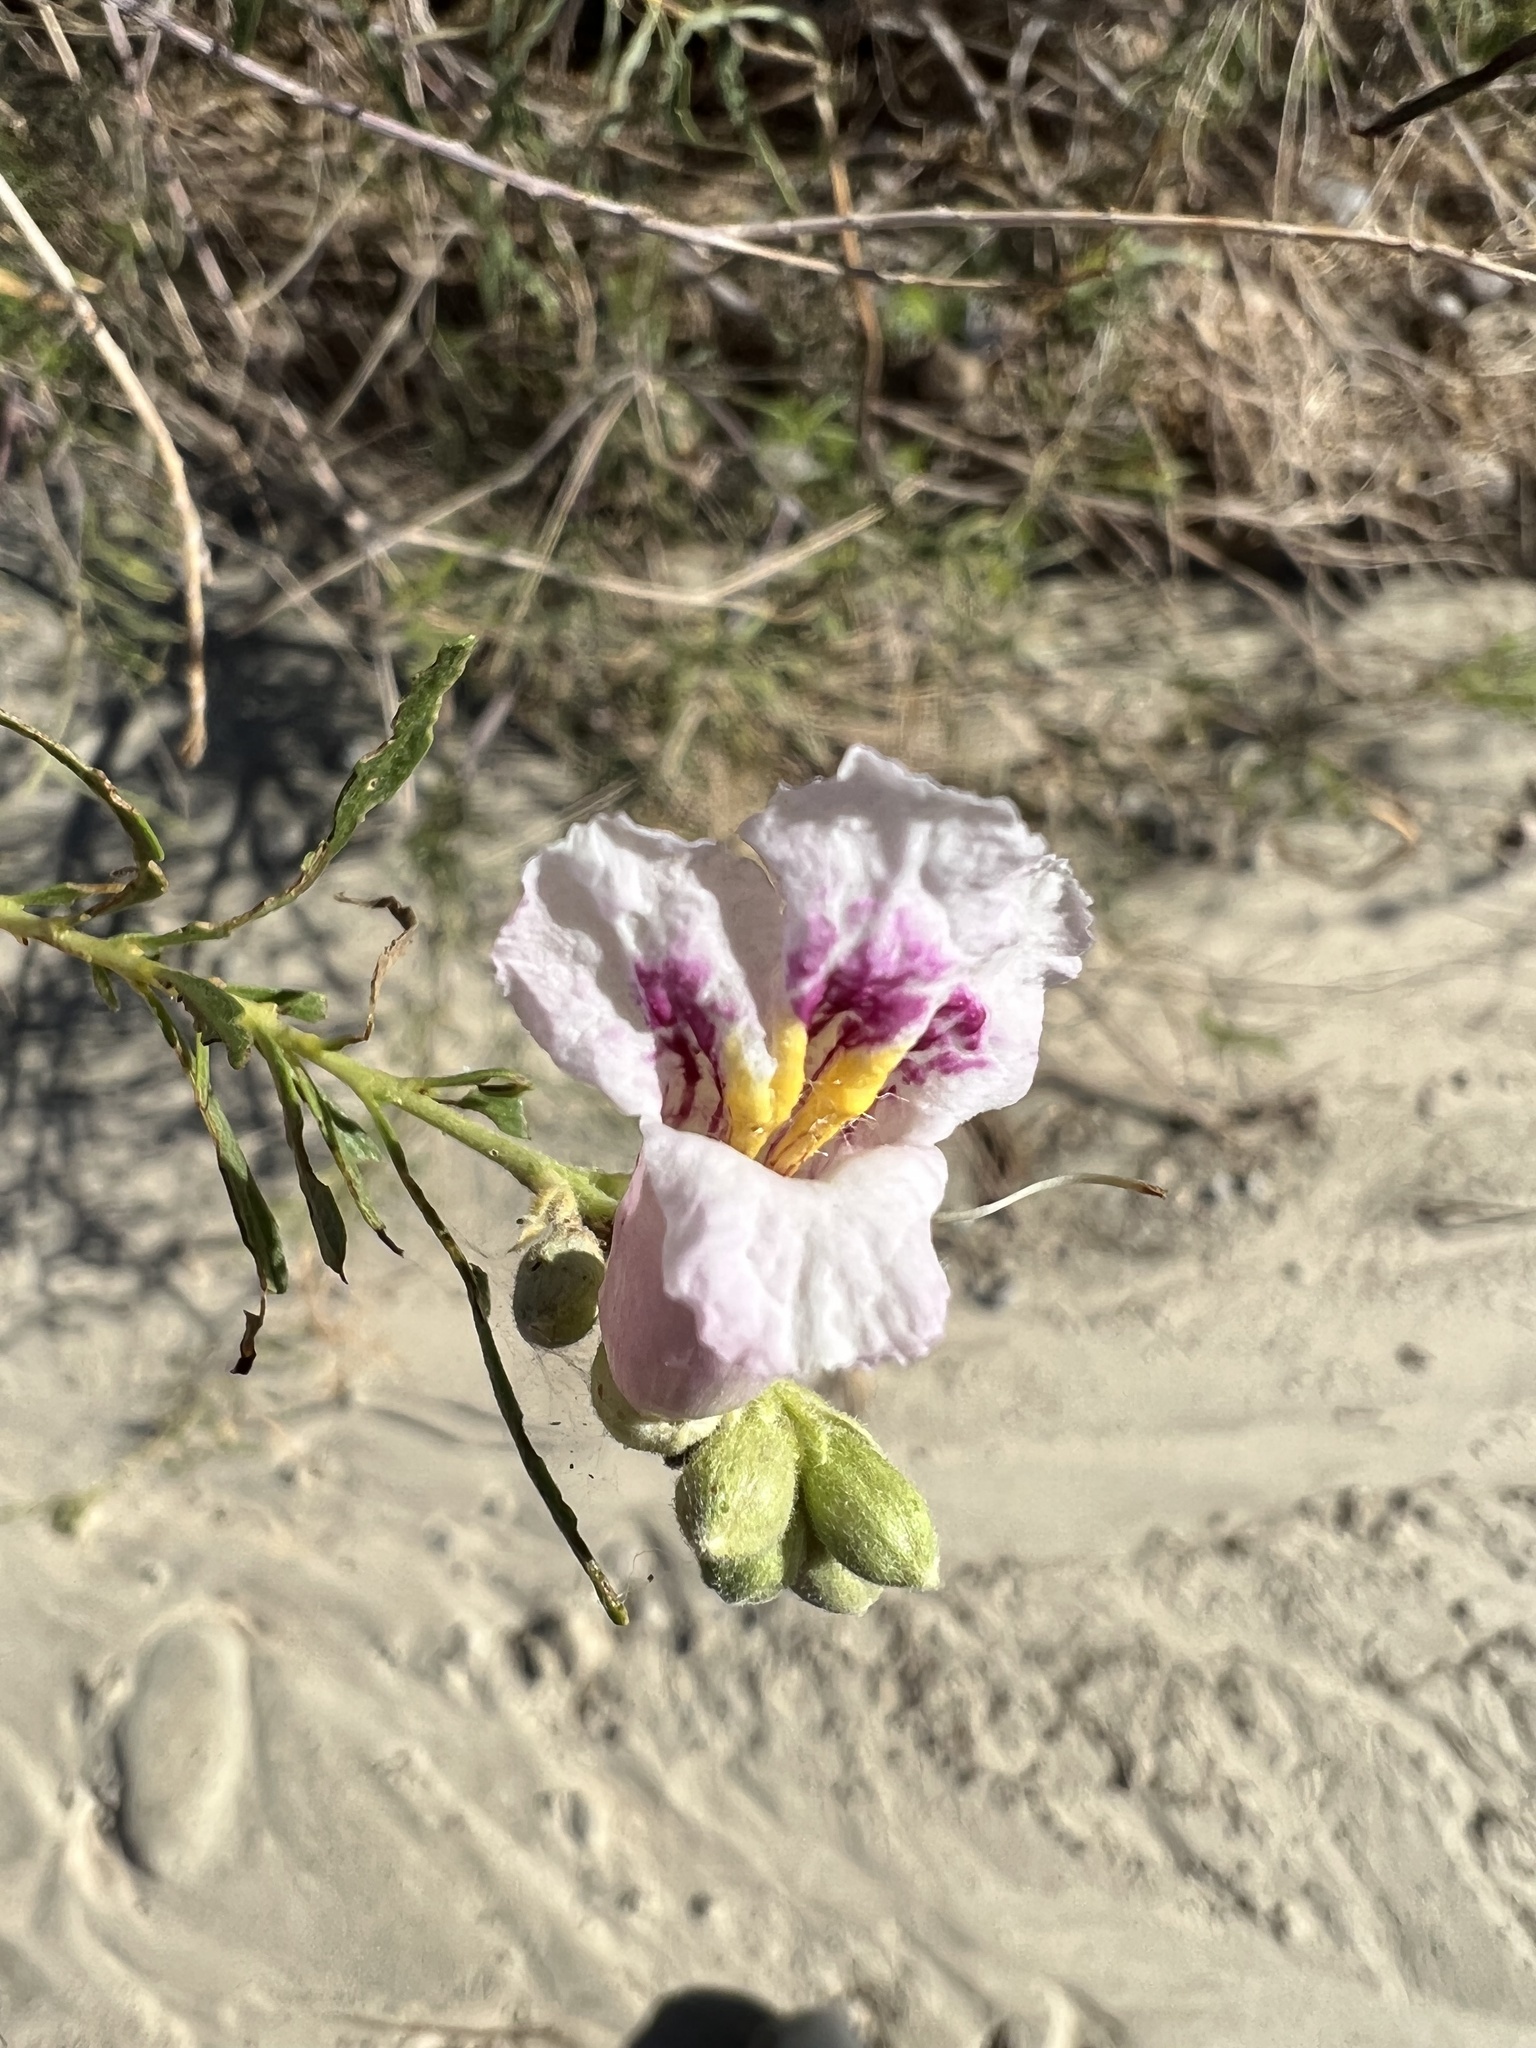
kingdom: Plantae
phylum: Tracheophyta
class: Magnoliopsida
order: Lamiales
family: Bignoniaceae
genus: Chilopsis
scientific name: Chilopsis linearis
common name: Desert-willow
